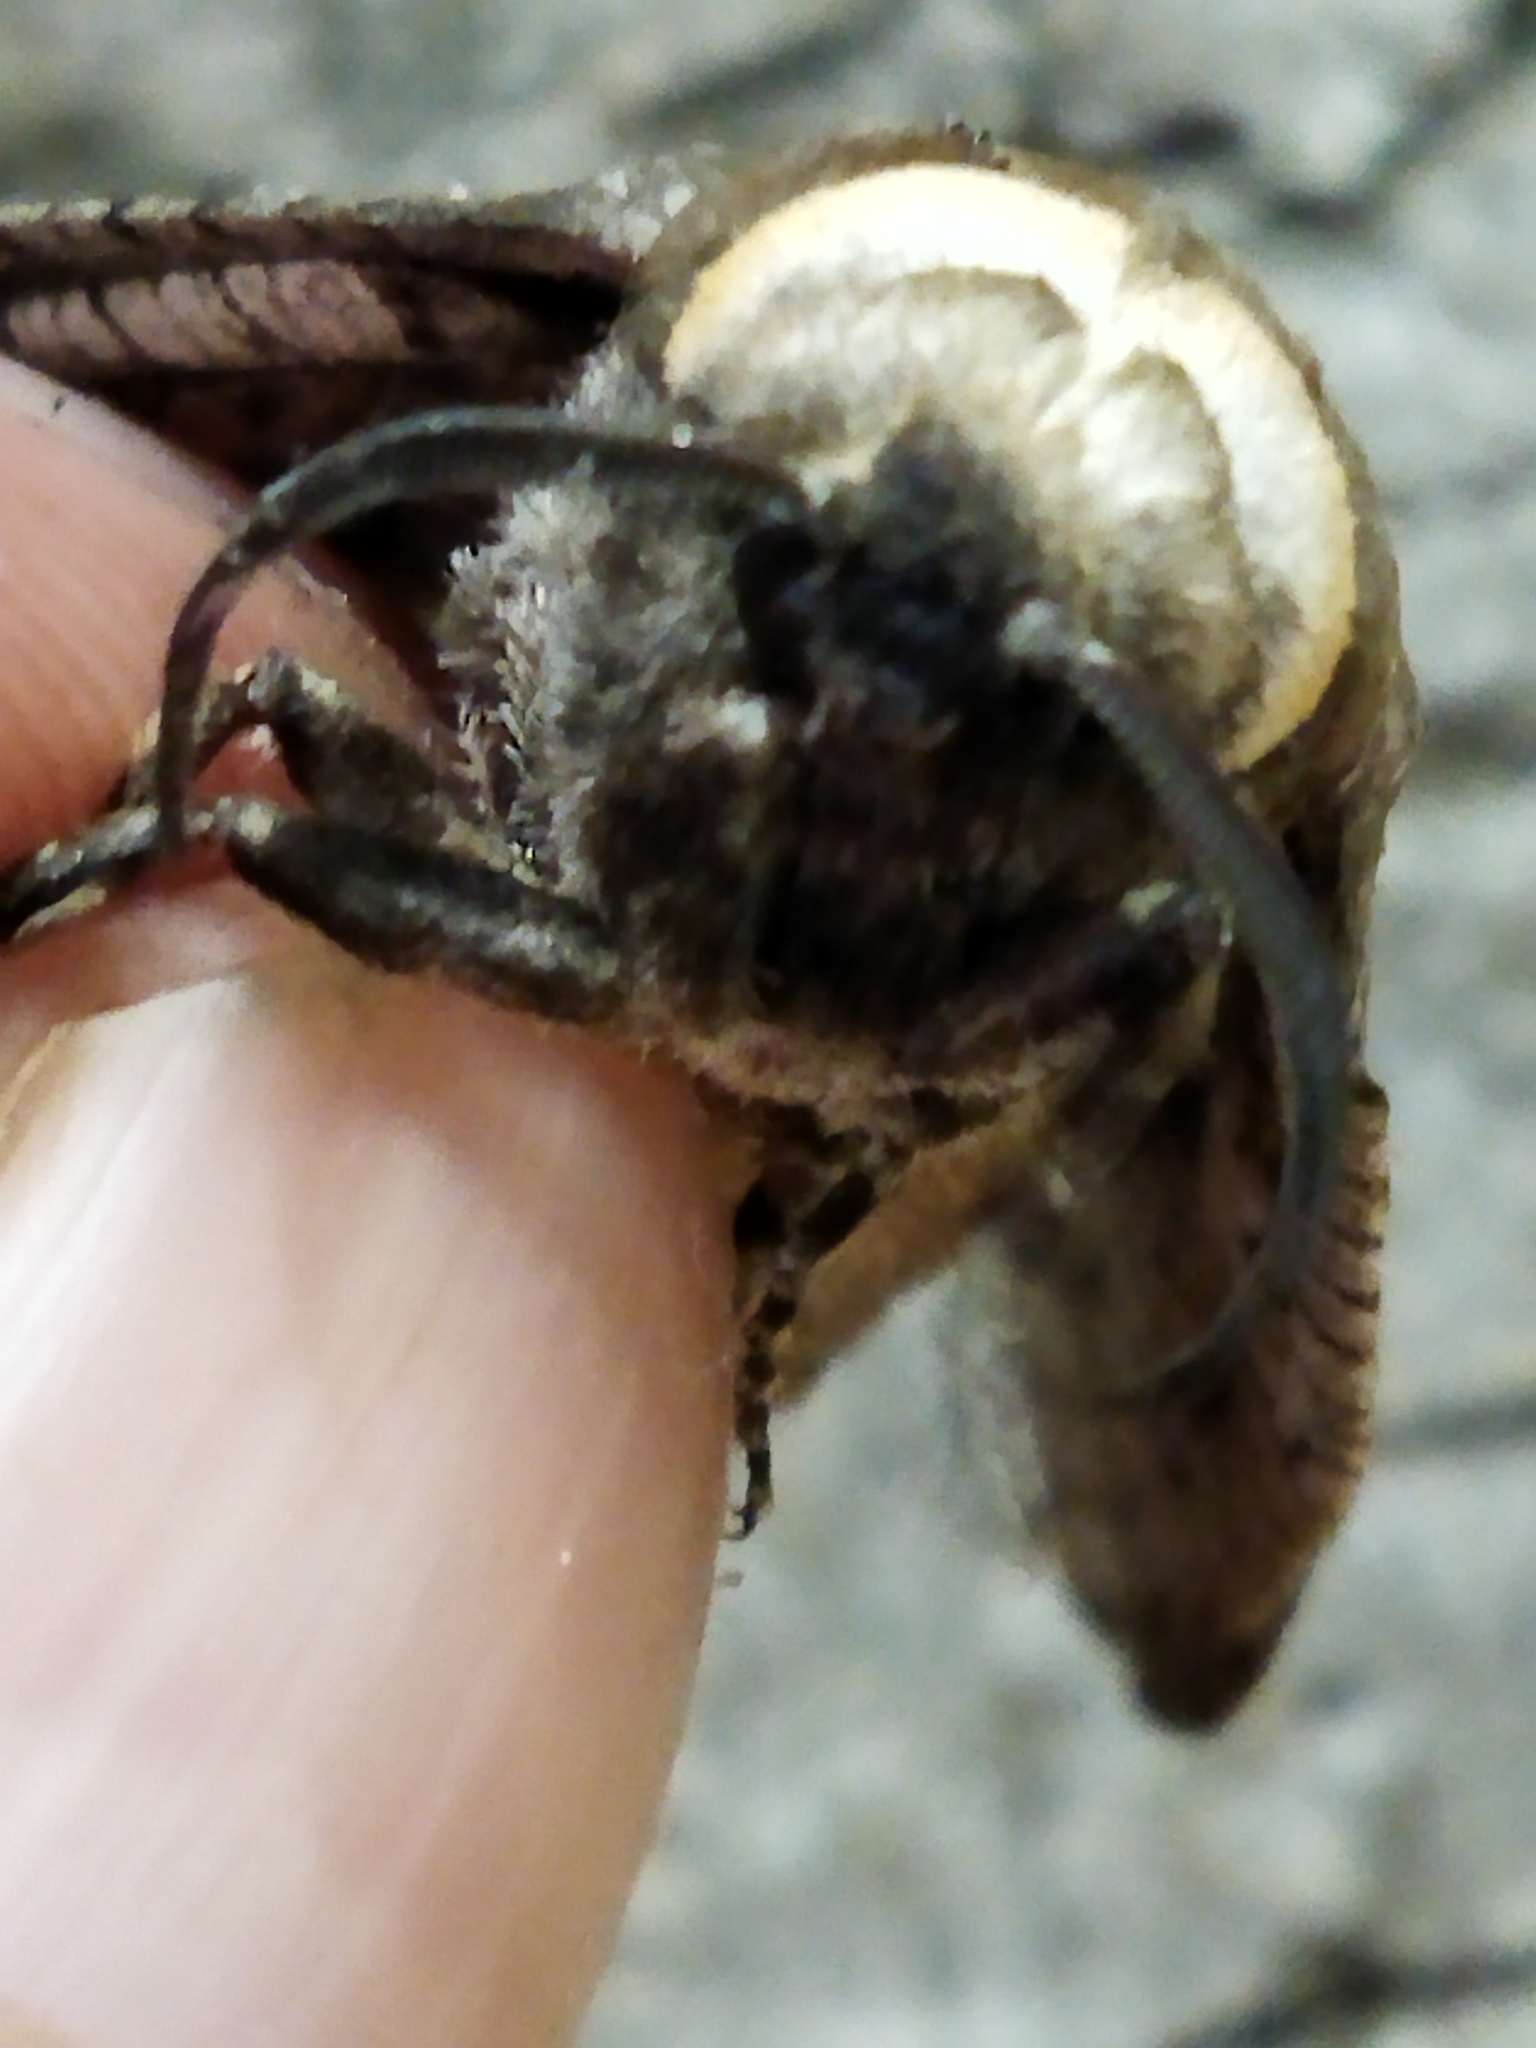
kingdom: Animalia
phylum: Arthropoda
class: Insecta
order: Lepidoptera
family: Cossidae
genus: Cossus
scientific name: Cossus cossus
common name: Goat moth
